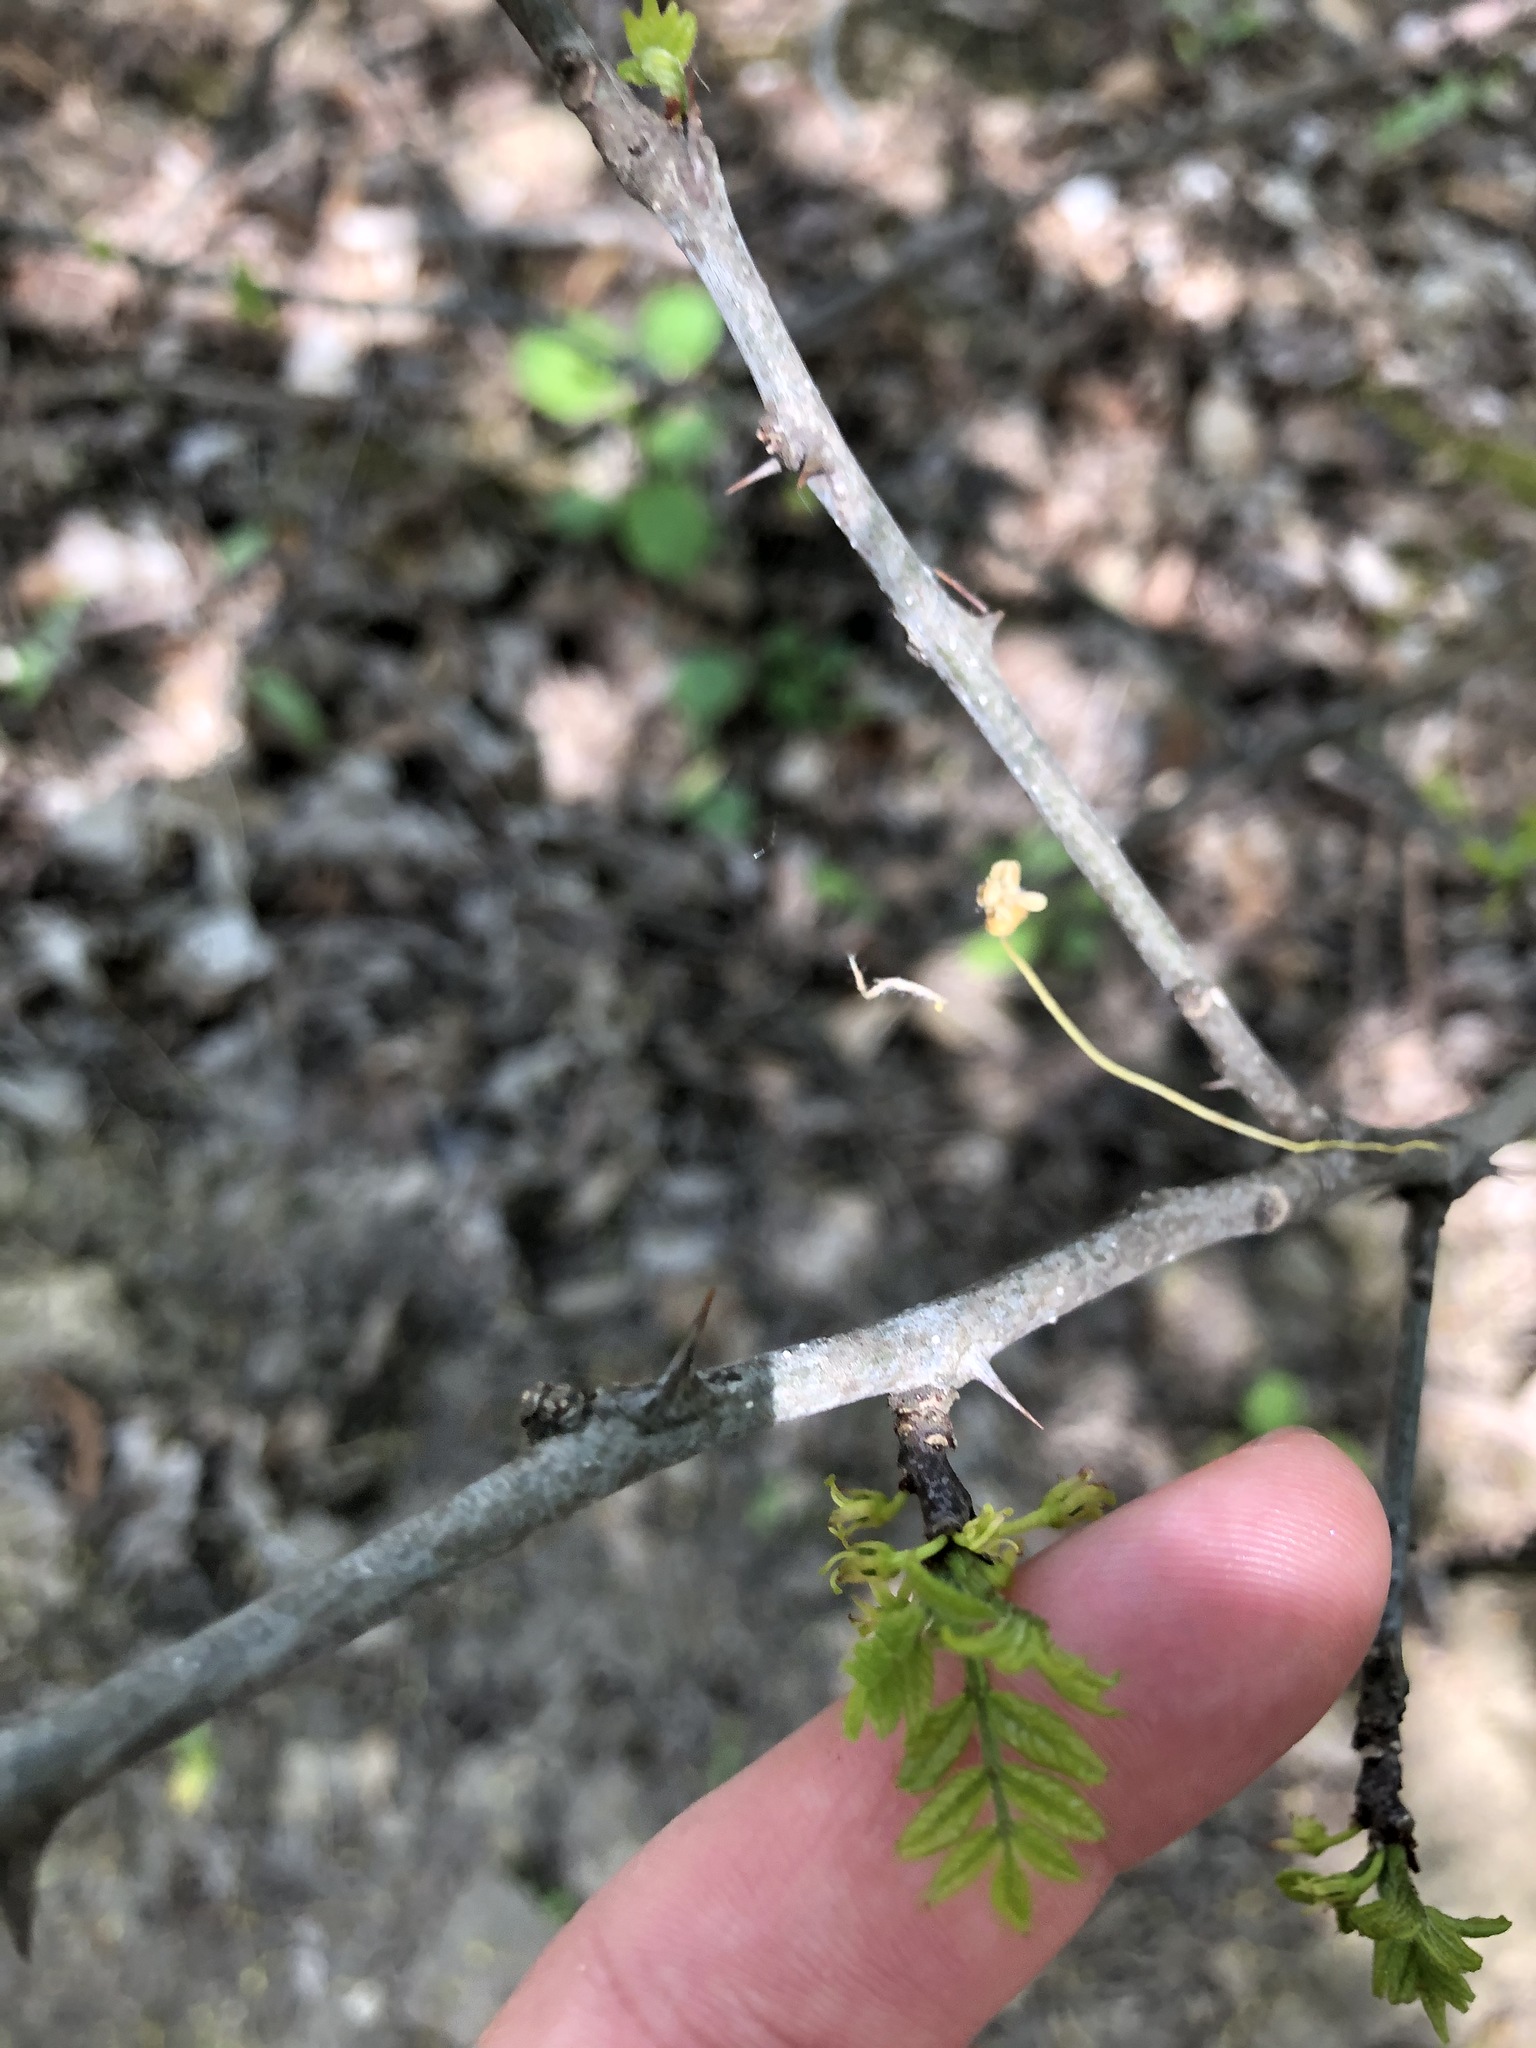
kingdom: Plantae
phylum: Tracheophyta
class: Magnoliopsida
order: Sapindales
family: Rutaceae
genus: Zanthoxylum
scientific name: Zanthoxylum americanum
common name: Northern prickly-ash
